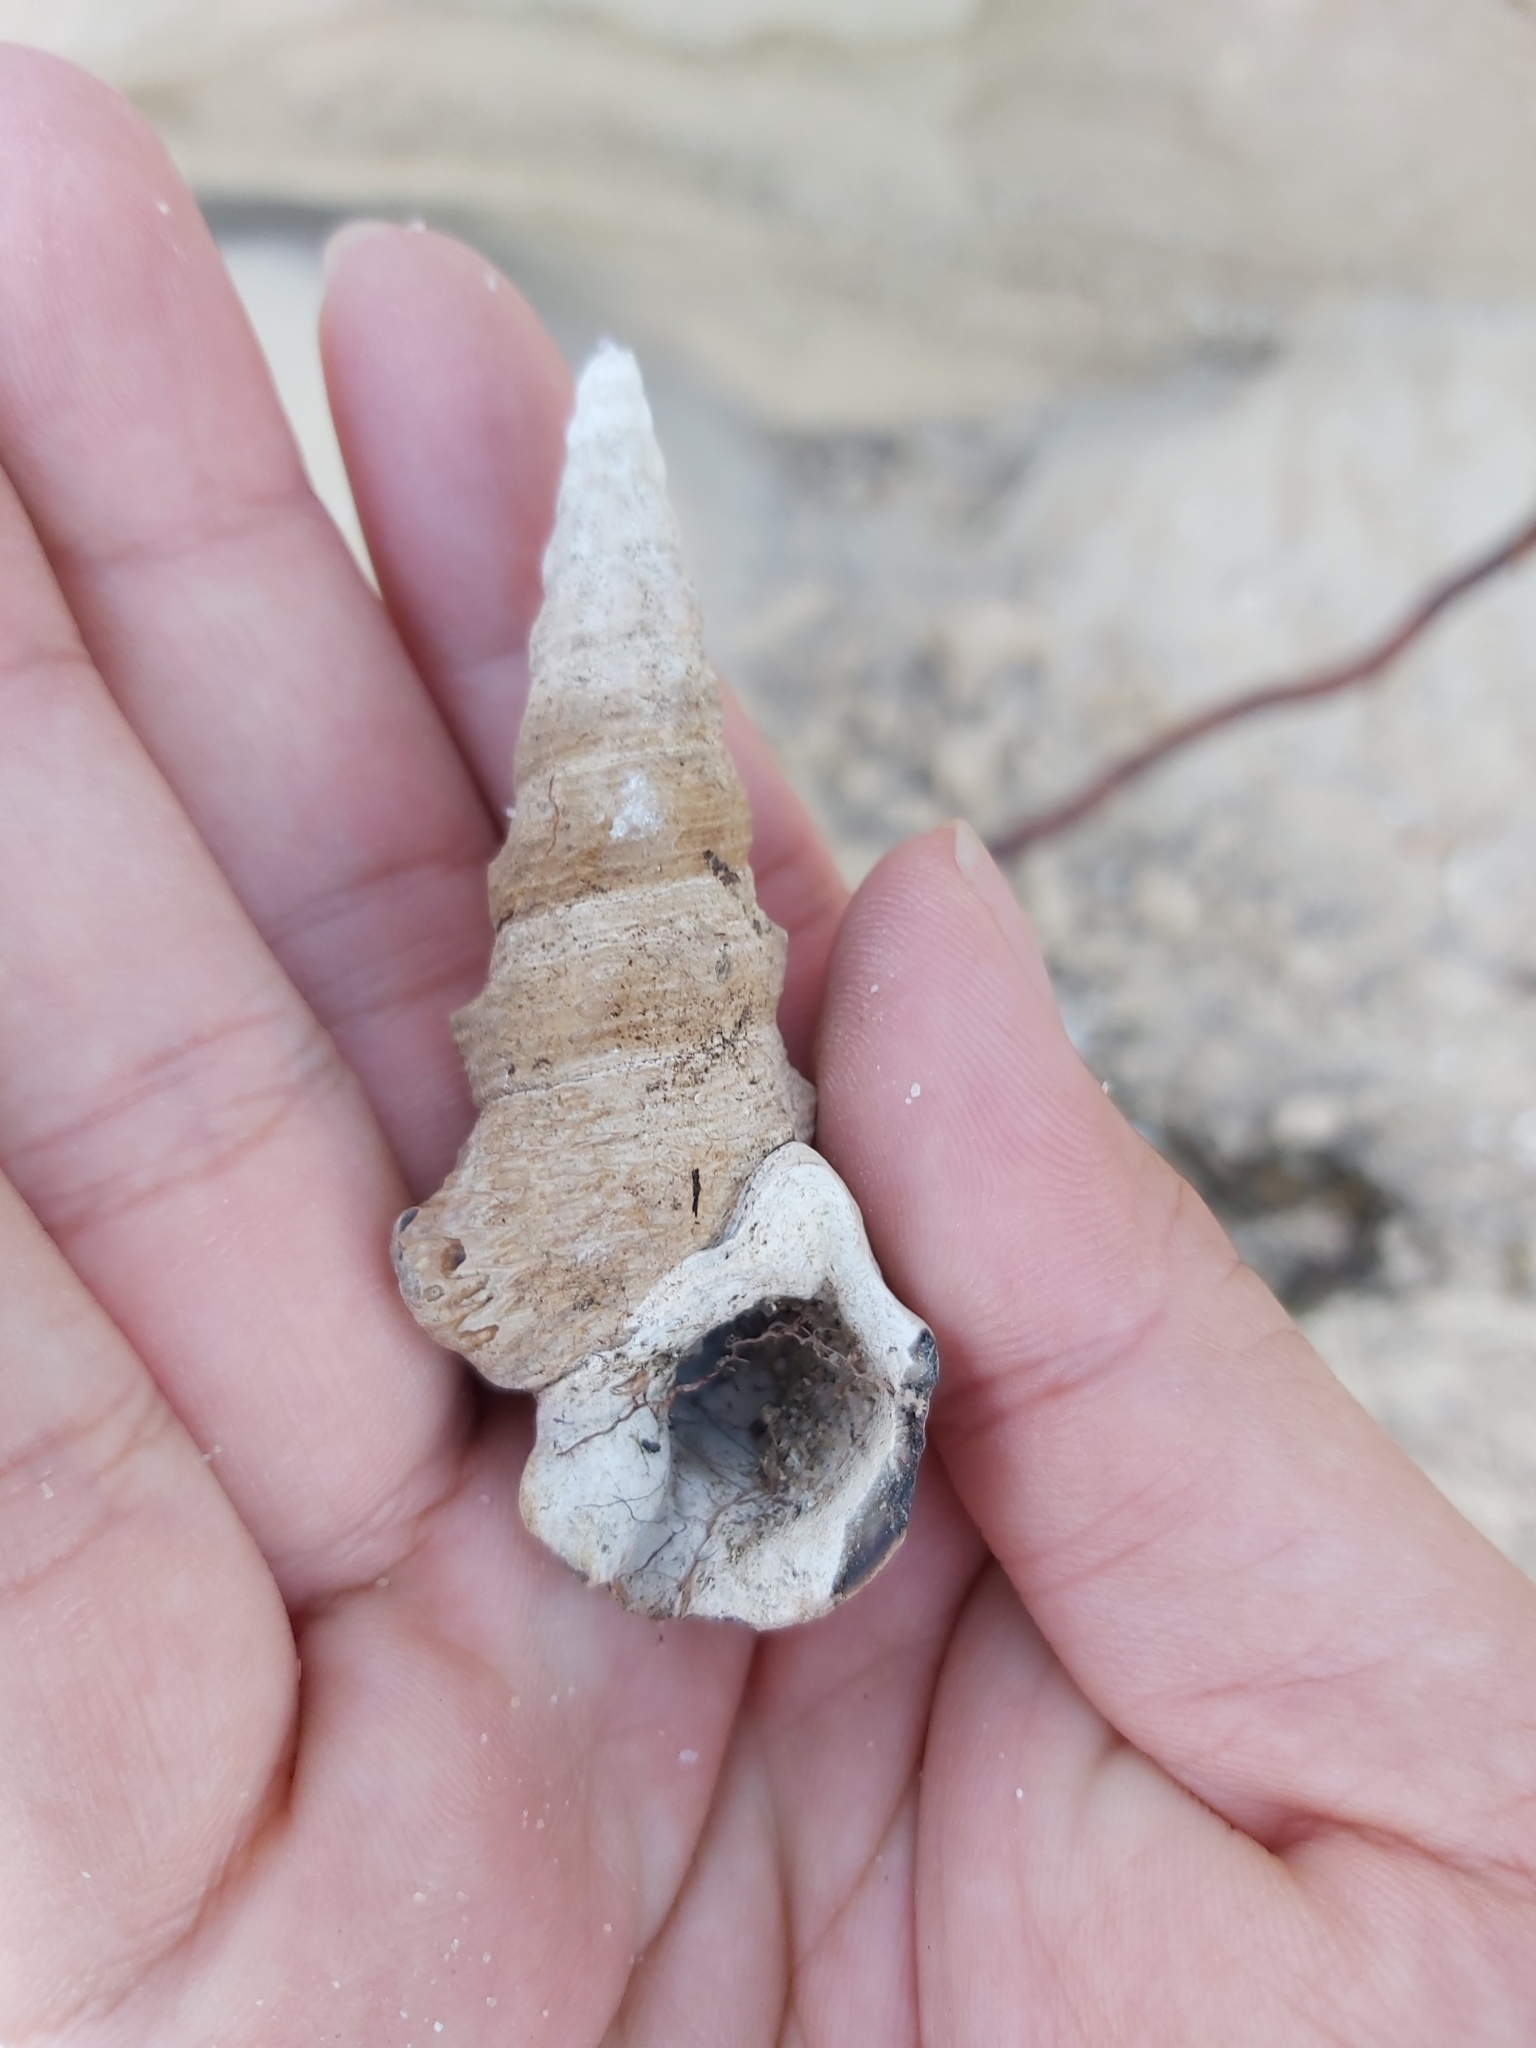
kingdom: Animalia
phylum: Mollusca
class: Gastropoda
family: Batillariidae
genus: Pyrazus
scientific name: Pyrazus ebeninus
